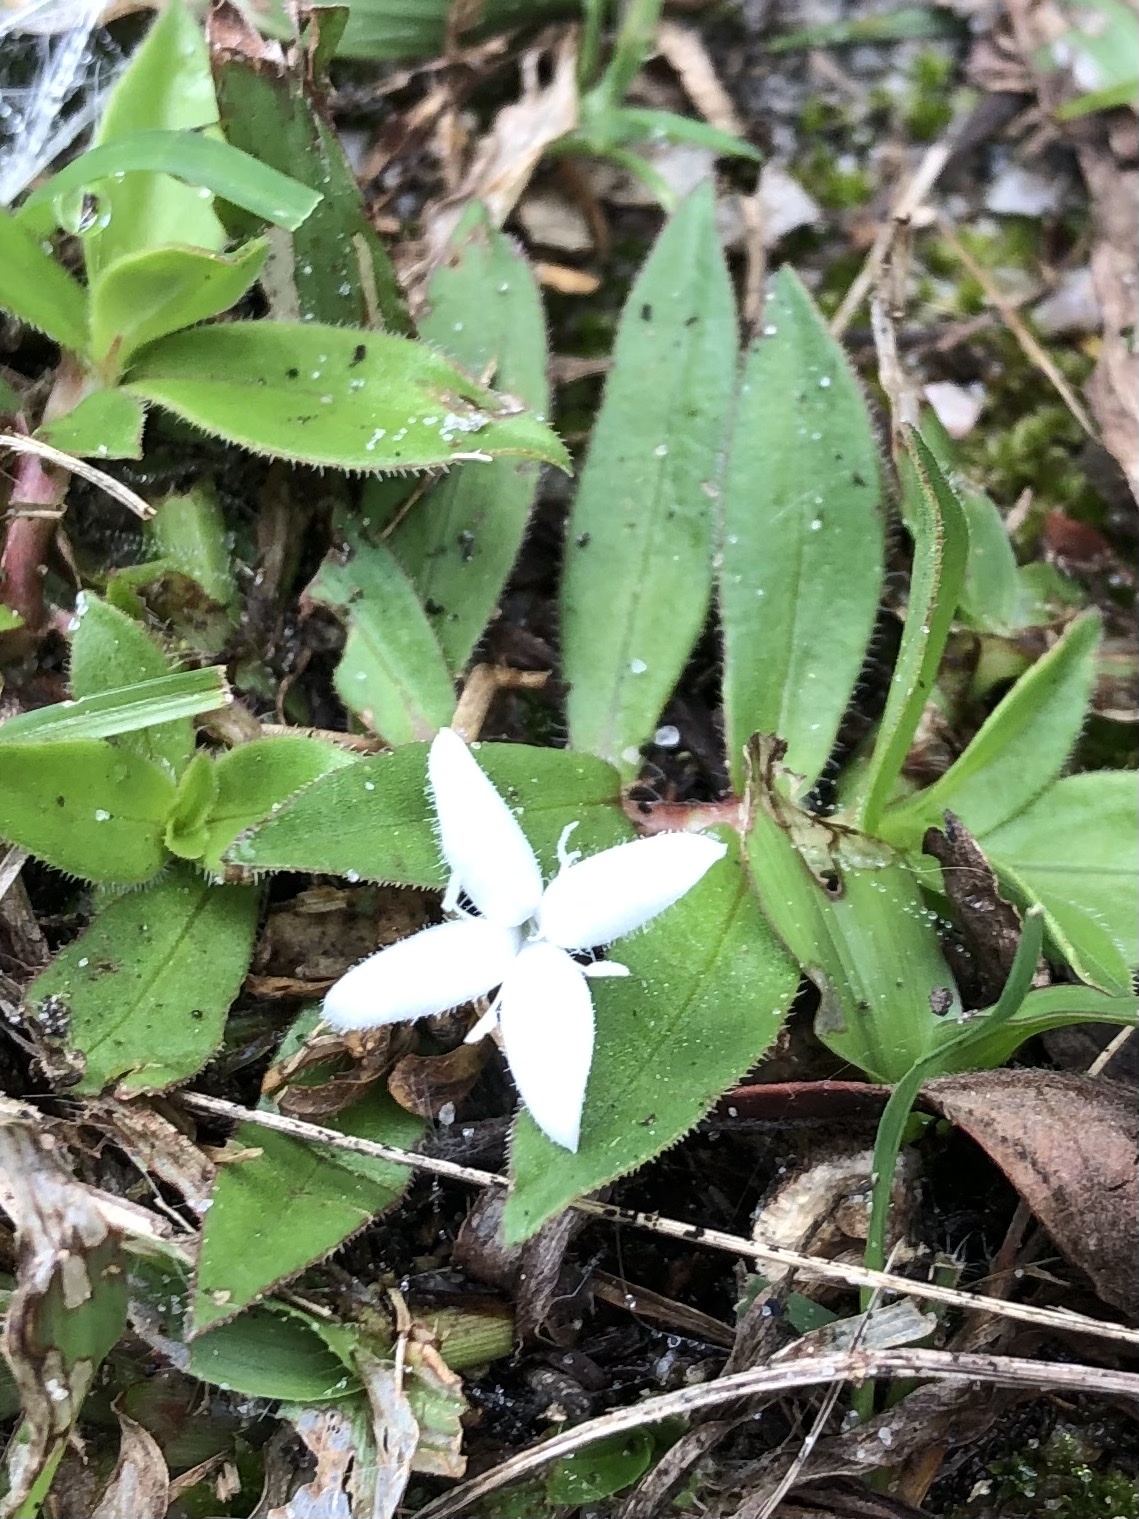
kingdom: Plantae
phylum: Tracheophyta
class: Magnoliopsida
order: Gentianales
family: Rubiaceae
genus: Diodia
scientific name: Diodia virginiana
